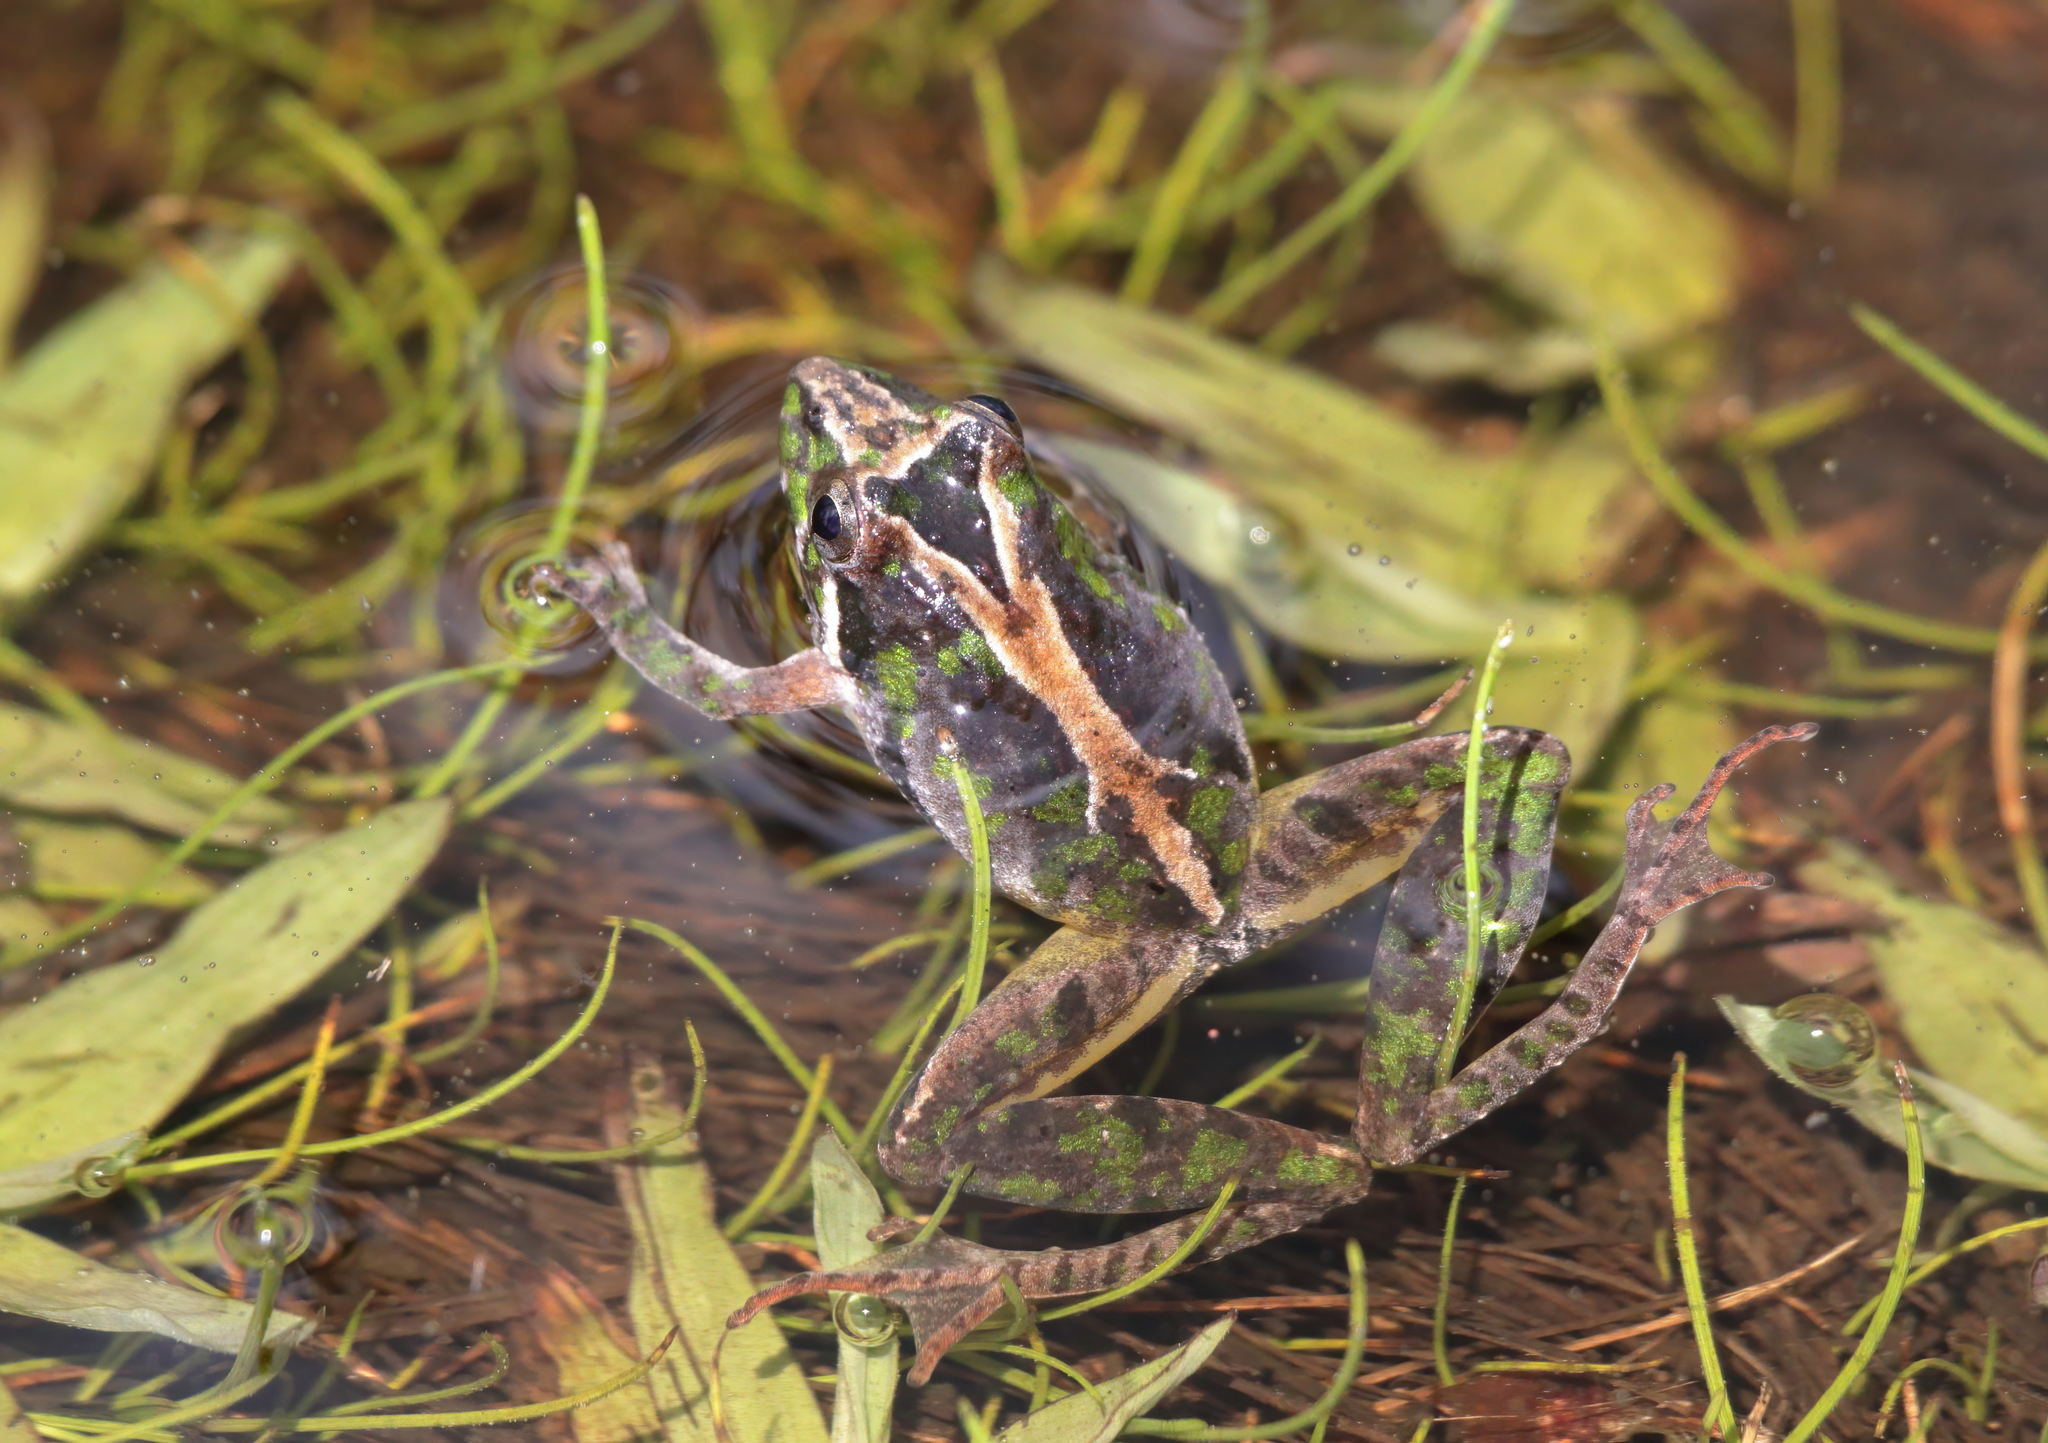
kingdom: Animalia
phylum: Chordata
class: Amphibia
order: Anura
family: Hylidae
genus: Acris
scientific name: Acris gryllus
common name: Southern cricket frog
